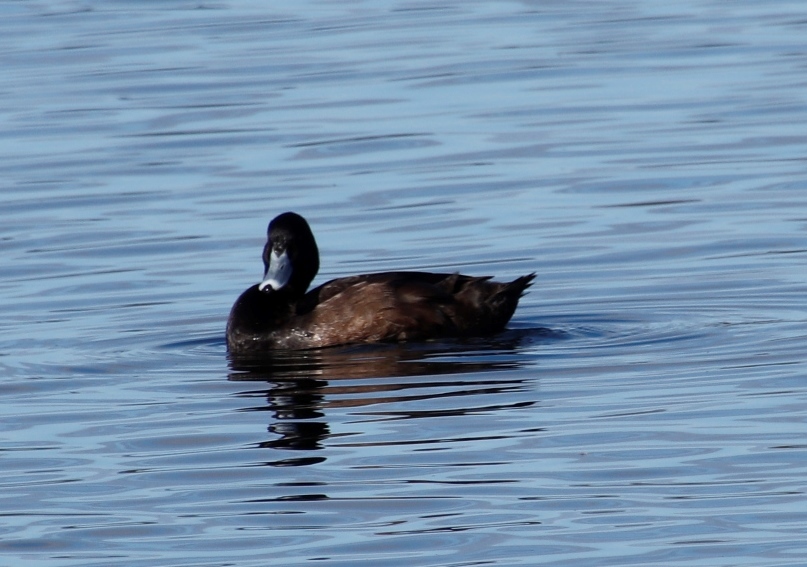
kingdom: Animalia
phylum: Chordata
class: Aves
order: Anseriformes
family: Anatidae
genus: Netta
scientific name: Netta erythrophthalma
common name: Southern pochard
